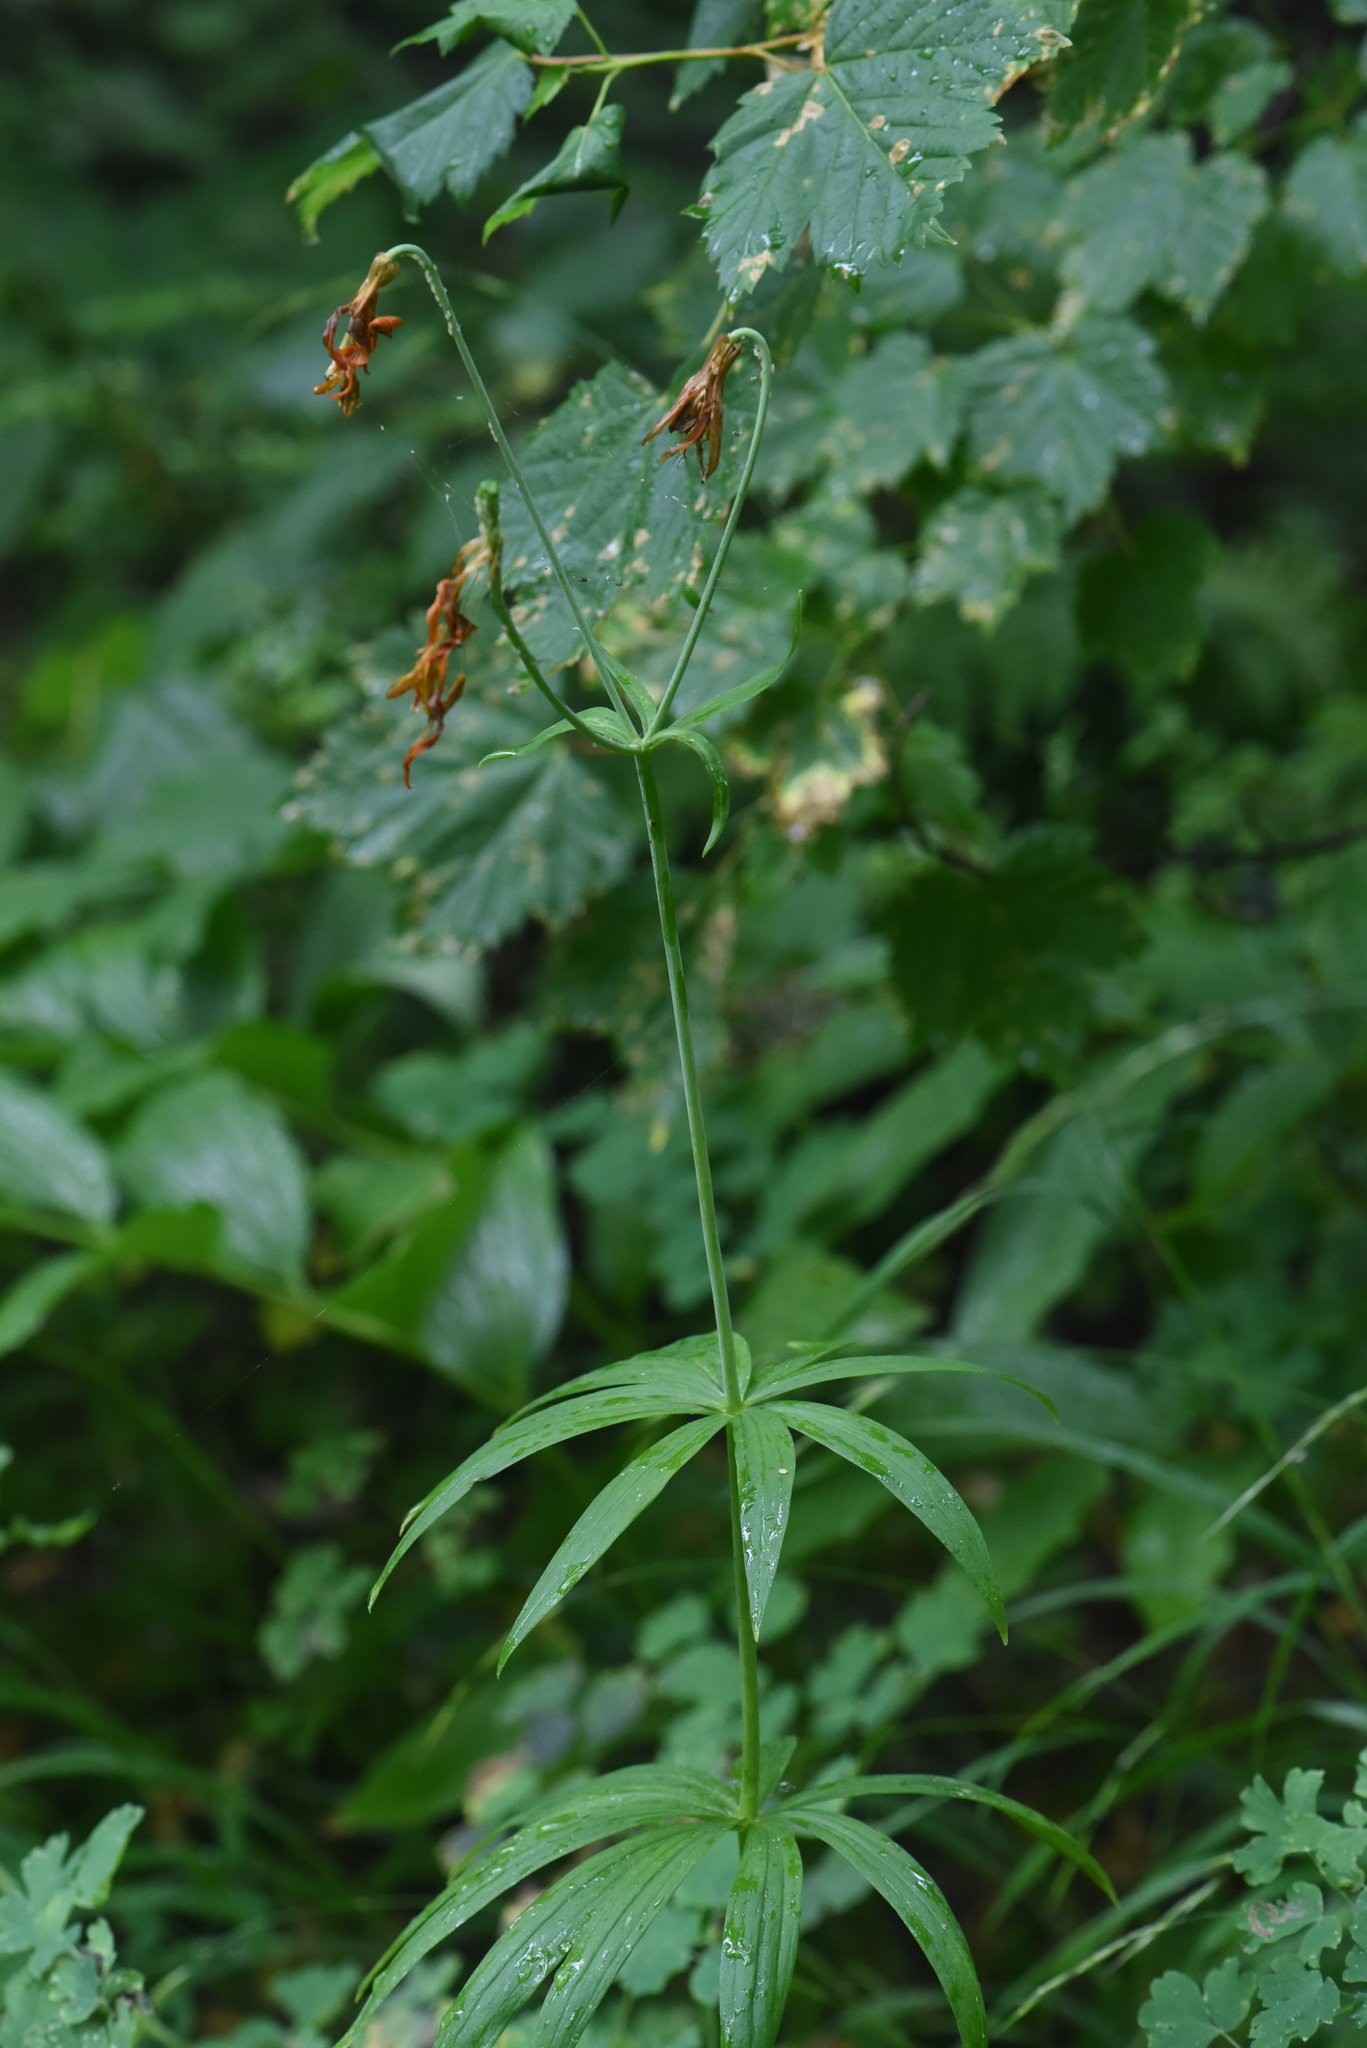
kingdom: Plantae
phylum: Tracheophyta
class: Liliopsida
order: Liliales
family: Liliaceae
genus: Lilium
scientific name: Lilium columbianum
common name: Columbia lily
